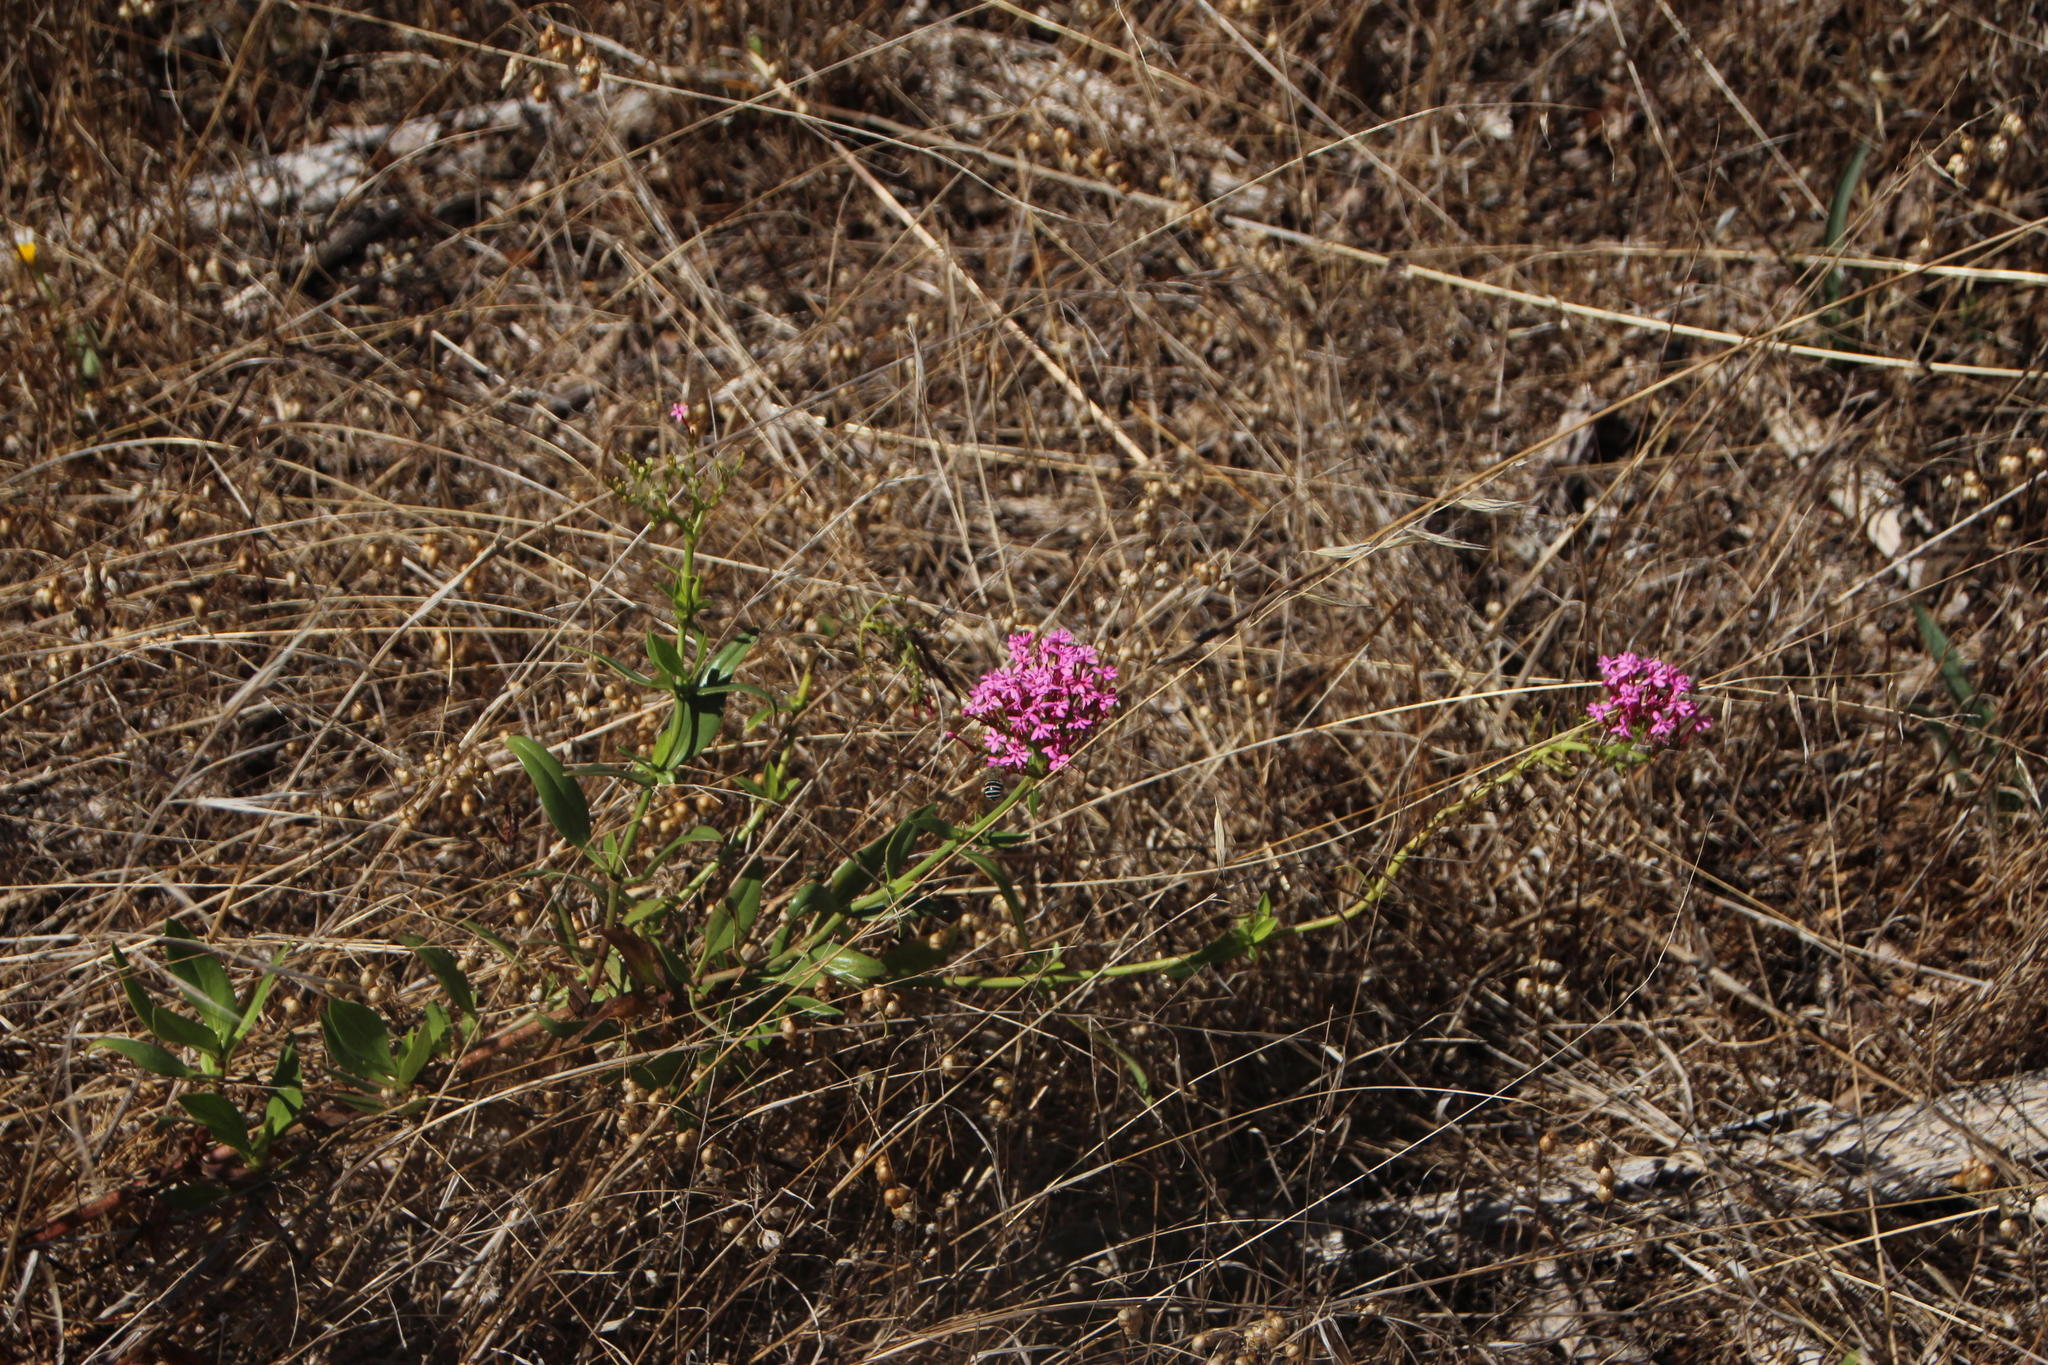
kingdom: Plantae
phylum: Tracheophyta
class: Magnoliopsida
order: Dipsacales
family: Caprifoliaceae
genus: Centranthus
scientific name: Centranthus ruber
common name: Red valerian
